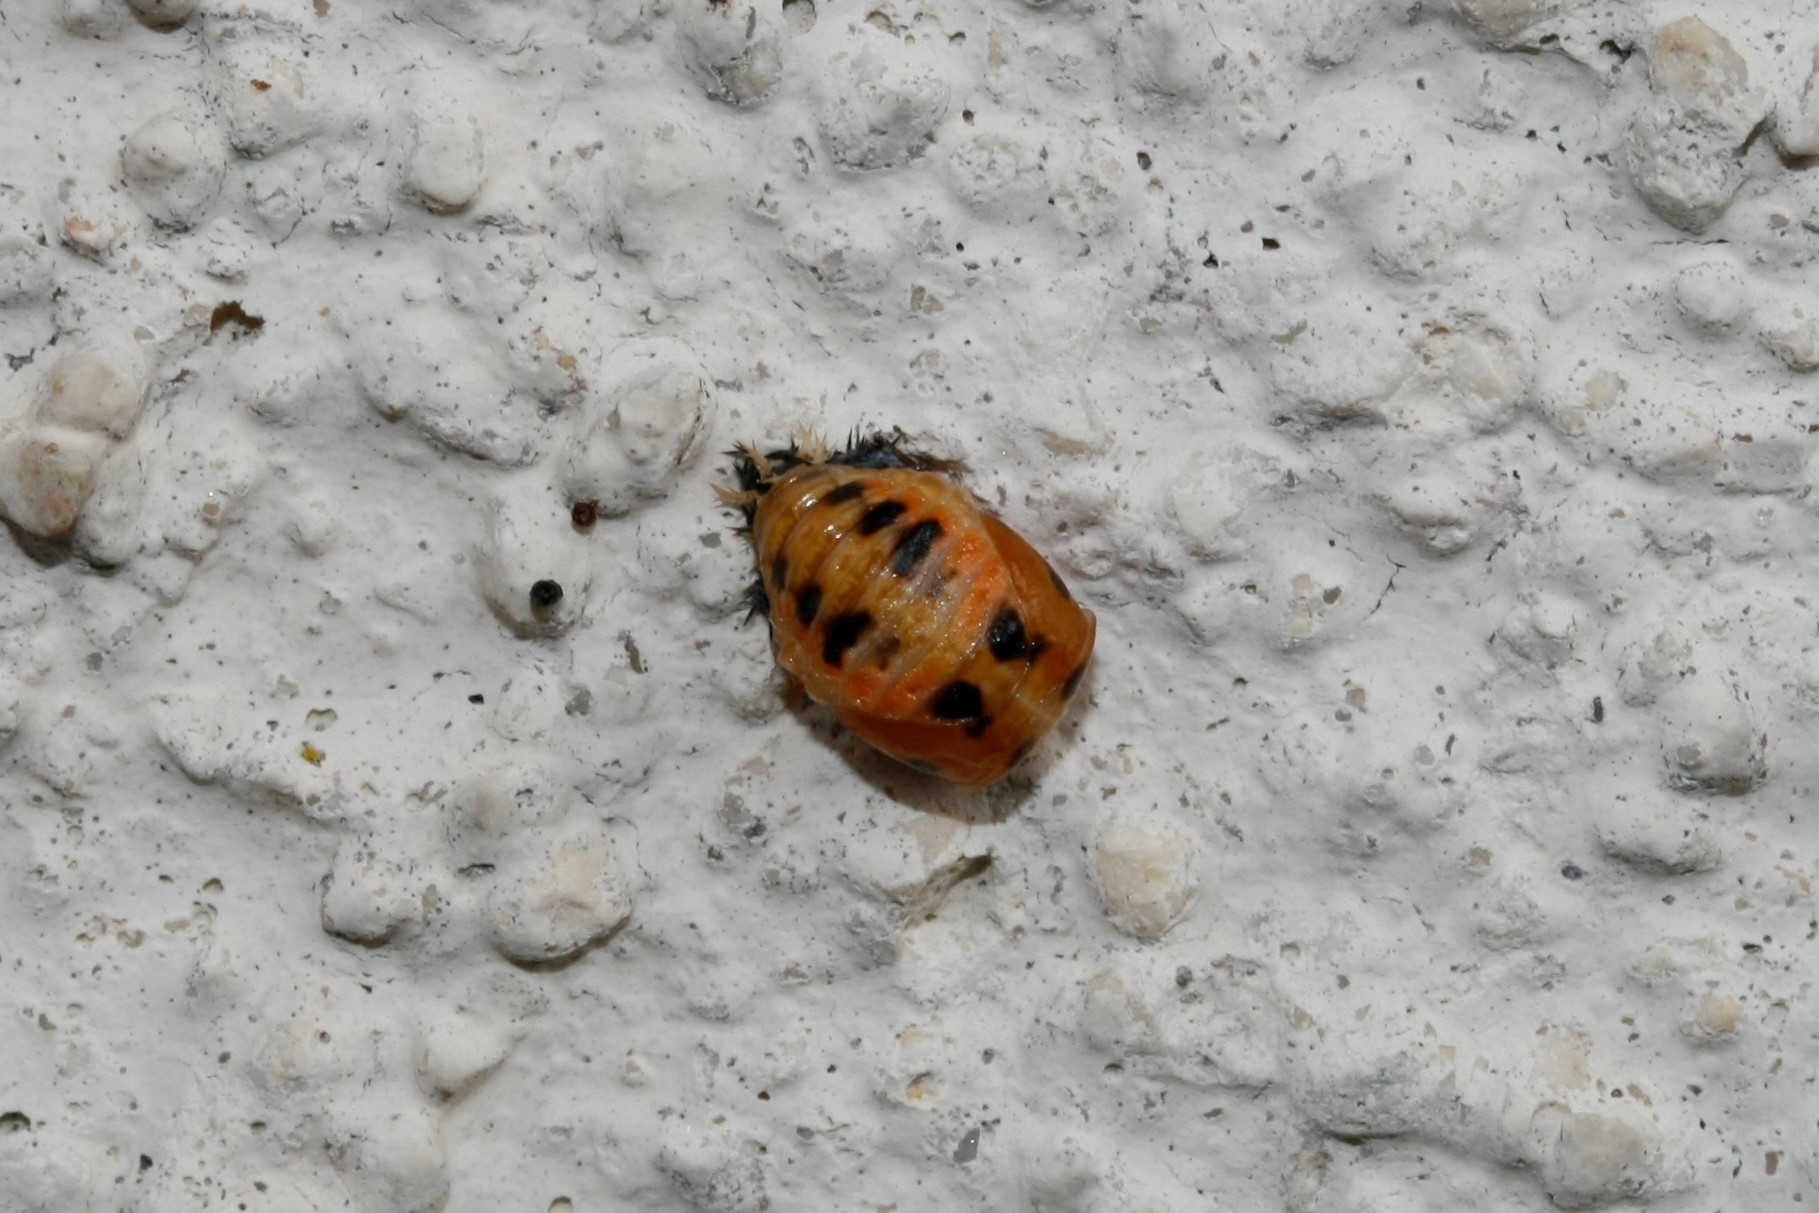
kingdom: Animalia
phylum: Arthropoda
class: Insecta
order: Coleoptera
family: Coccinellidae
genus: Harmonia
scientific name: Harmonia axyridis
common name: Harlequin ladybird
